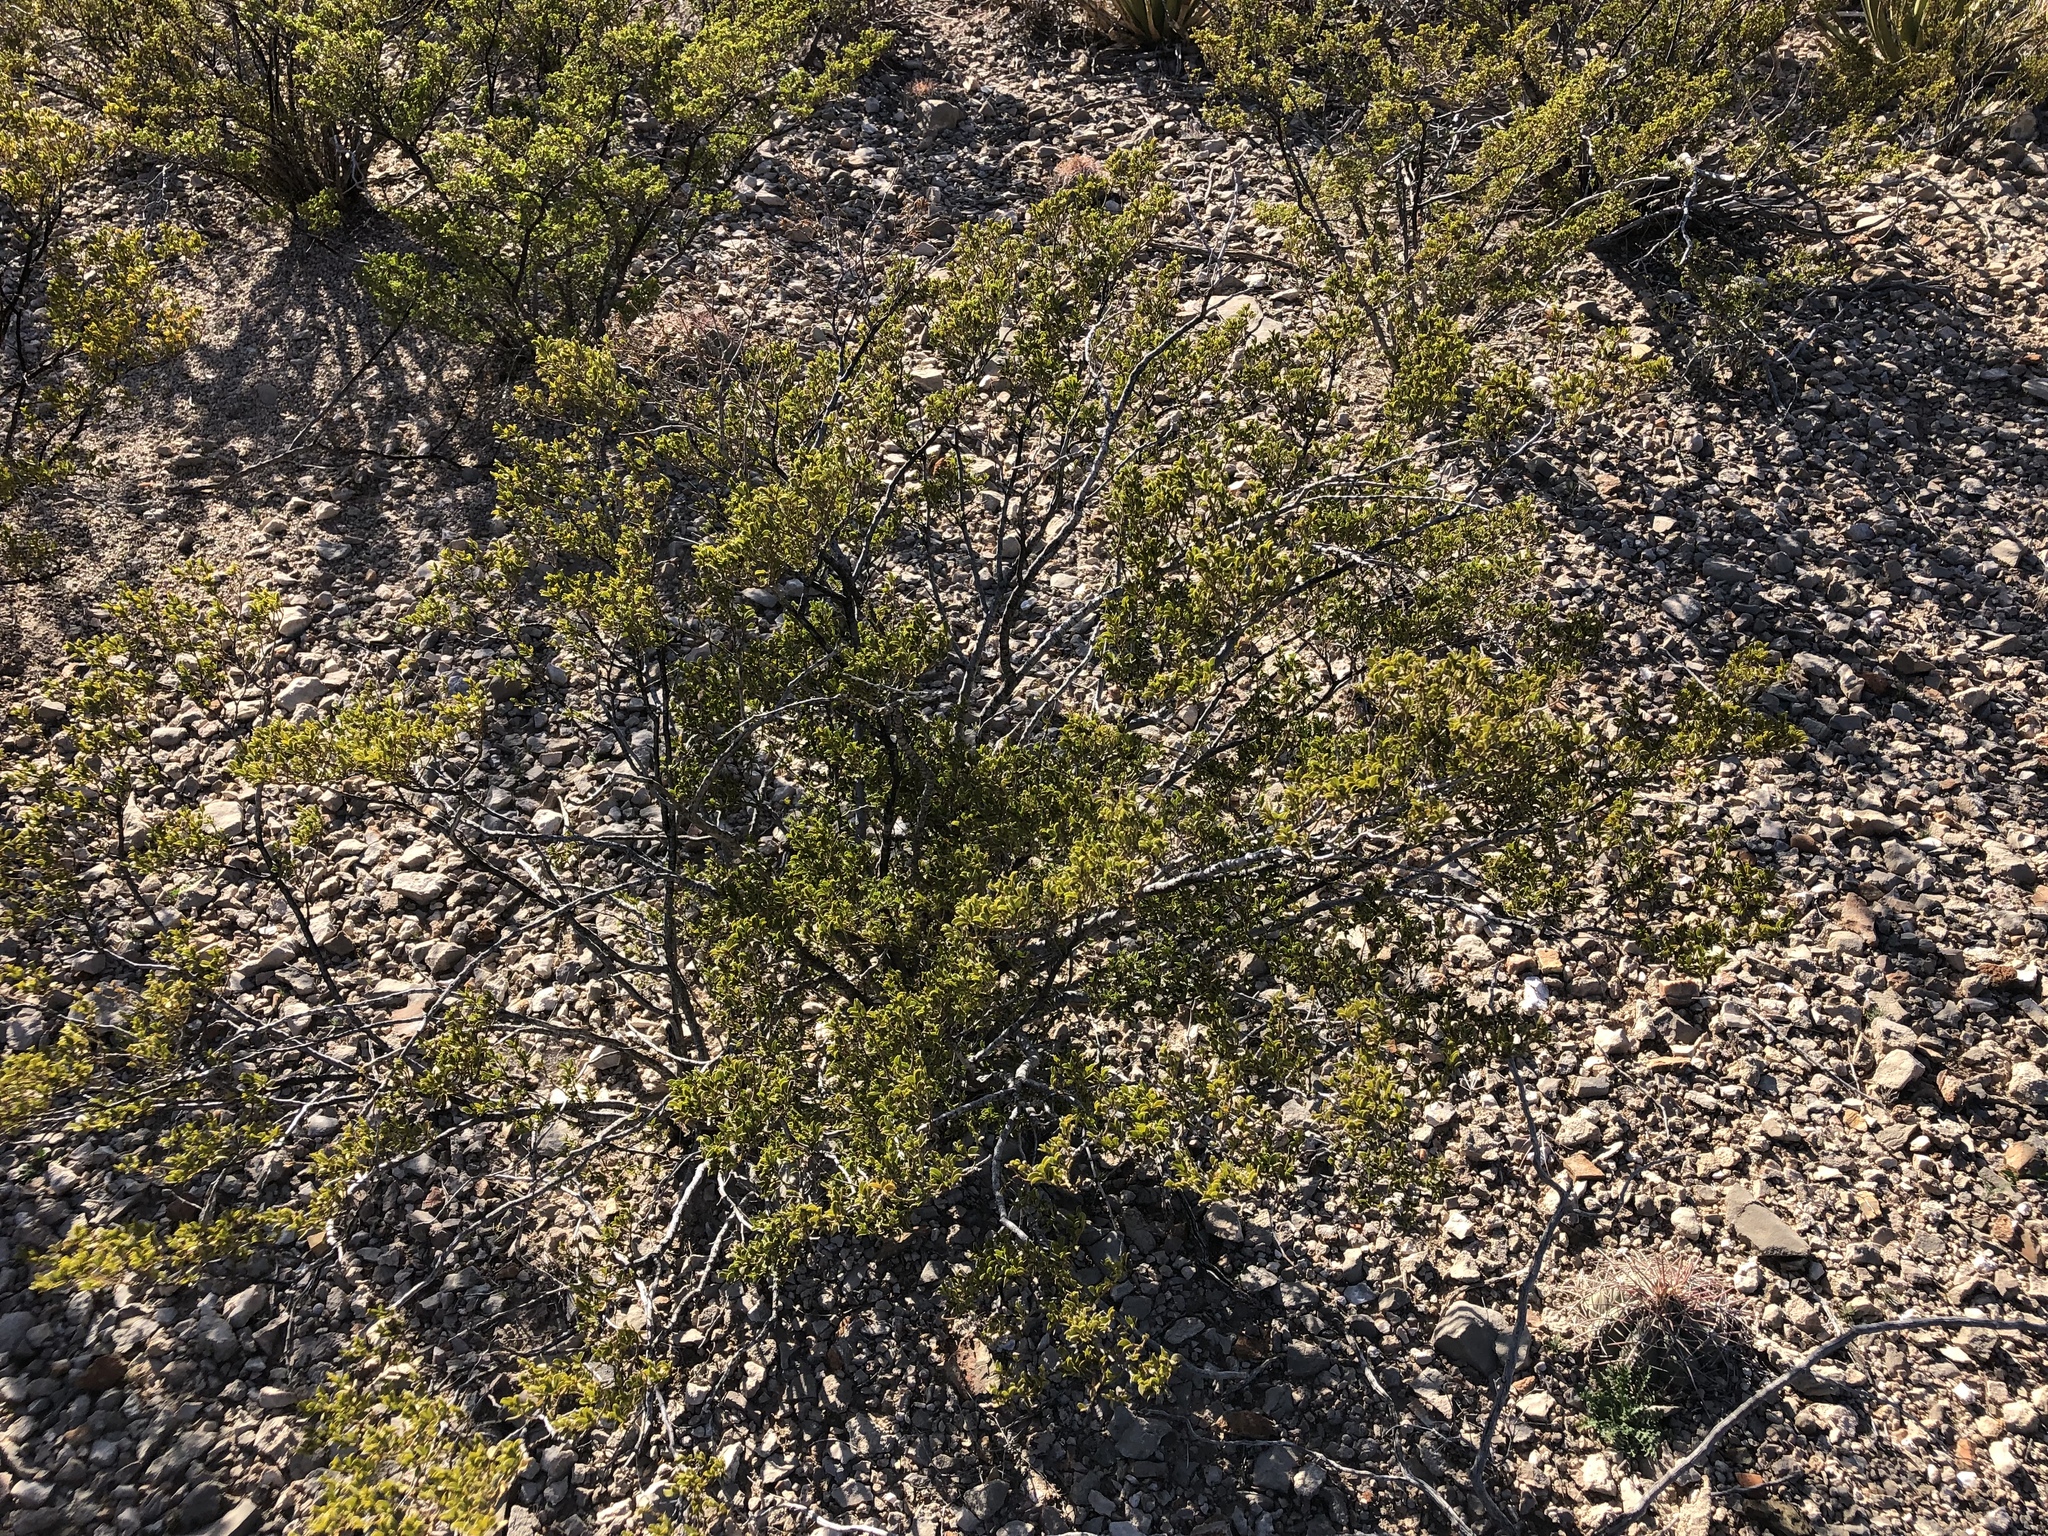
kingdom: Plantae
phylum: Tracheophyta
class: Magnoliopsida
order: Zygophyllales
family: Zygophyllaceae
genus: Larrea
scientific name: Larrea tridentata
